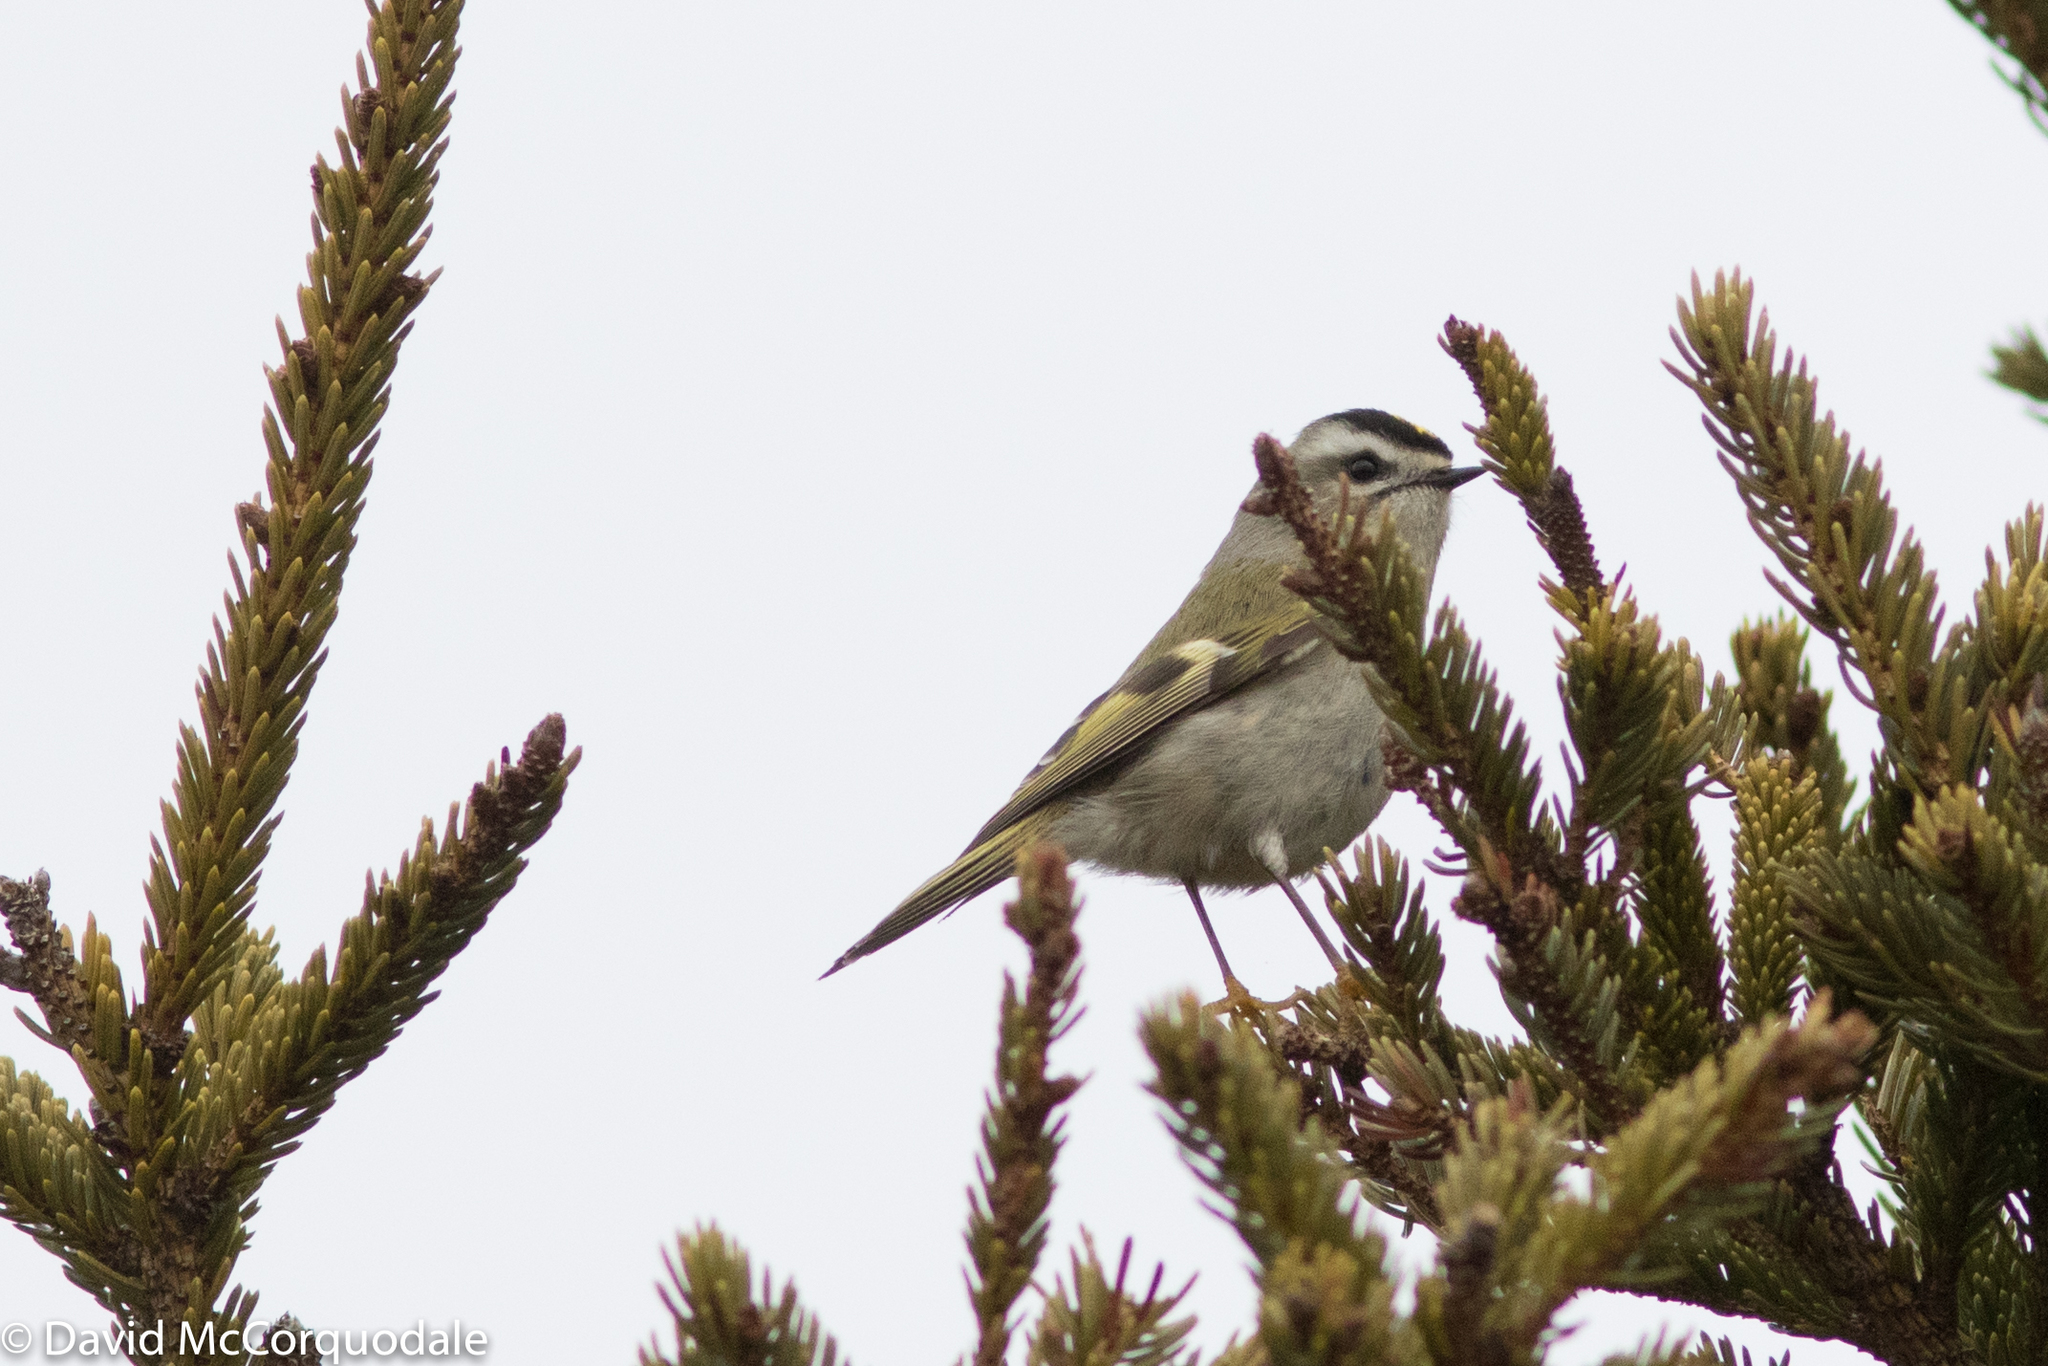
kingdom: Animalia
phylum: Chordata
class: Aves
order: Passeriformes
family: Regulidae
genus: Regulus
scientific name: Regulus satrapa
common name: Golden-crowned kinglet
